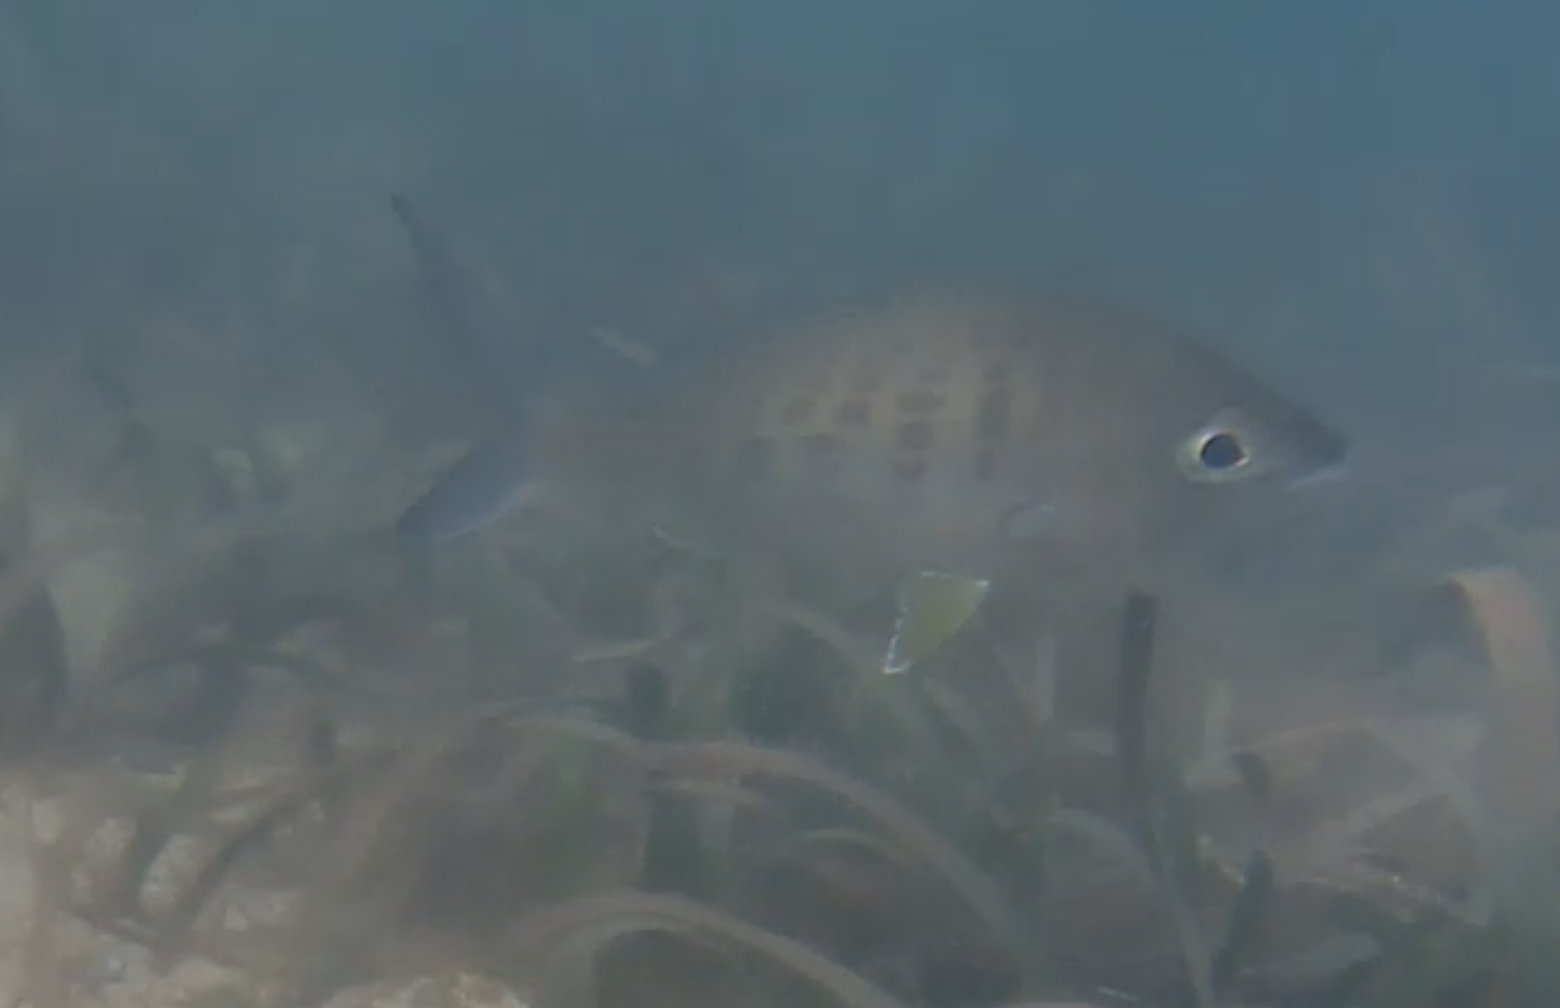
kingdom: Animalia
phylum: Chordata
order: Perciformes
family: Gerreidae
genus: Gerres
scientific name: Gerres cinereus
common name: Hedow
